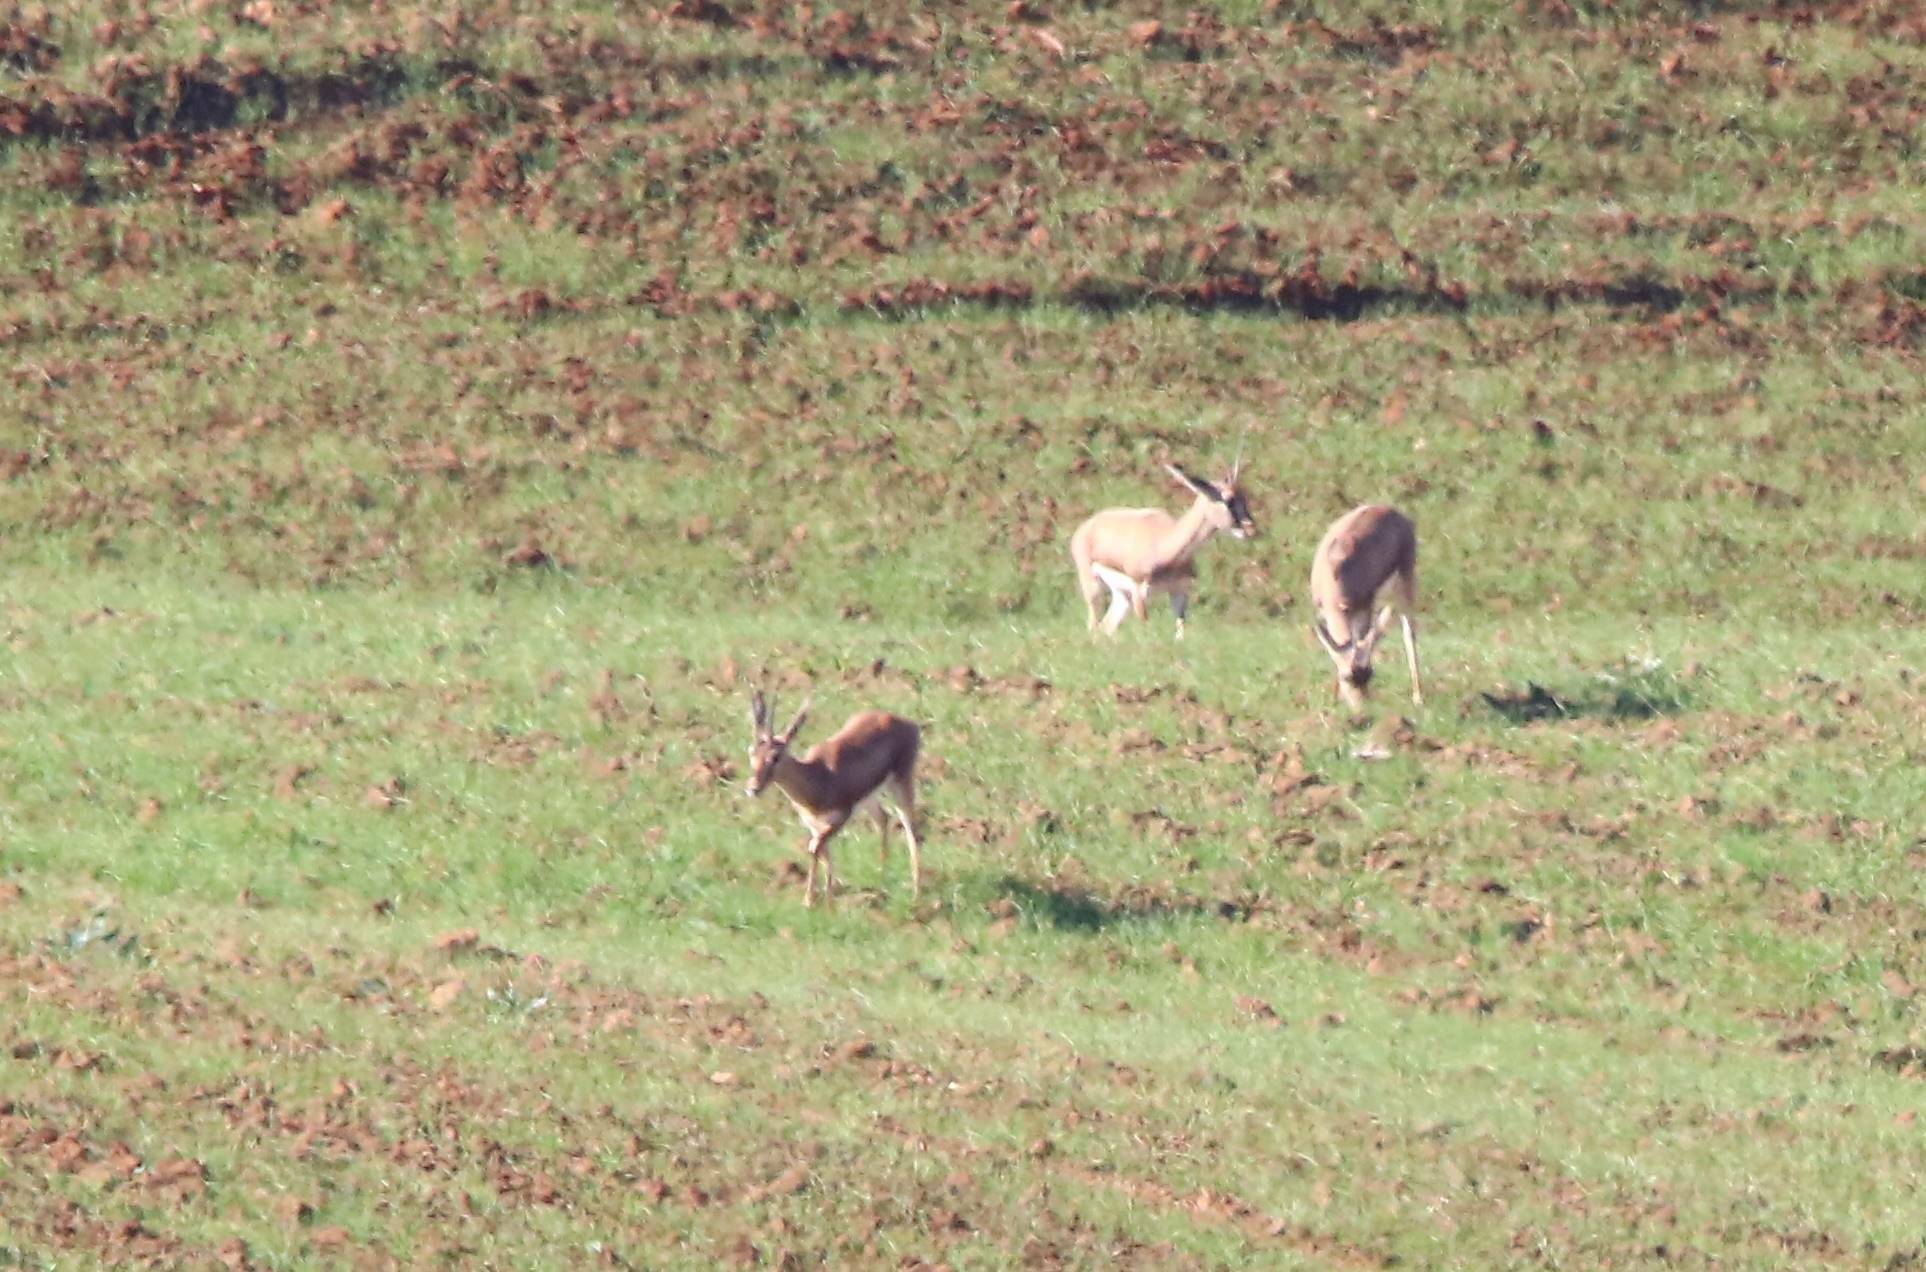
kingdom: Animalia
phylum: Chordata
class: Mammalia
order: Artiodactyla
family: Bovidae
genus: Gazella
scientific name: Gazella cuvieri
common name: Cuvier's gazelle
